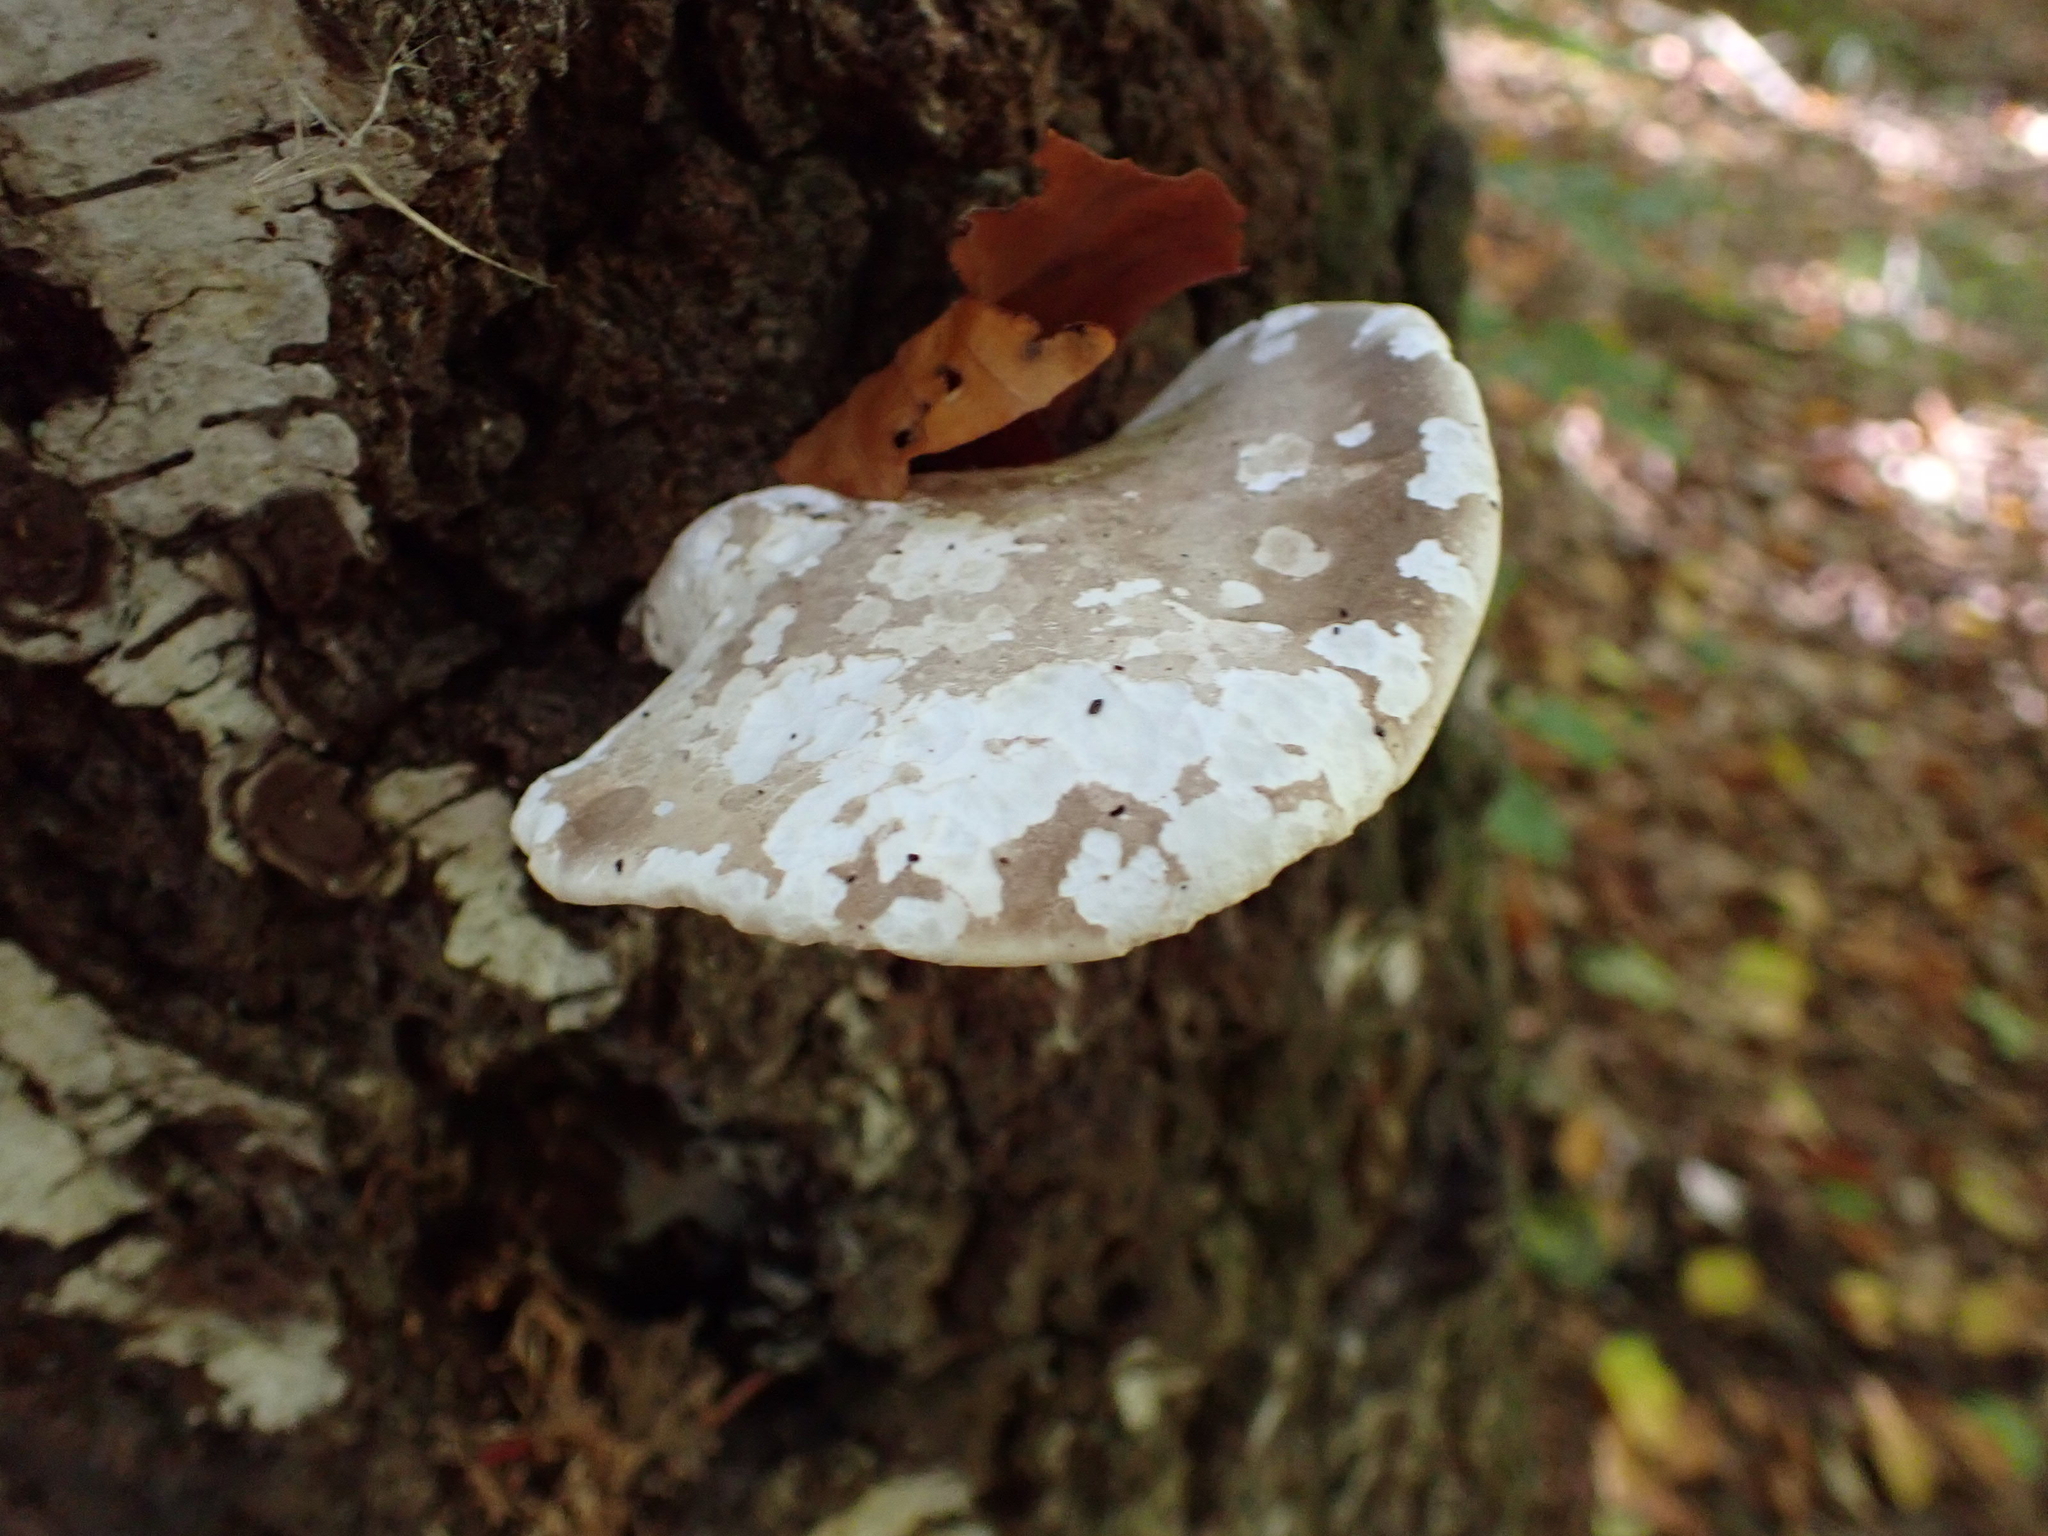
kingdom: Fungi
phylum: Basidiomycota
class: Agaricomycetes
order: Polyporales
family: Fomitopsidaceae
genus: Fomitopsis
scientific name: Fomitopsis betulina
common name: Birch polypore
